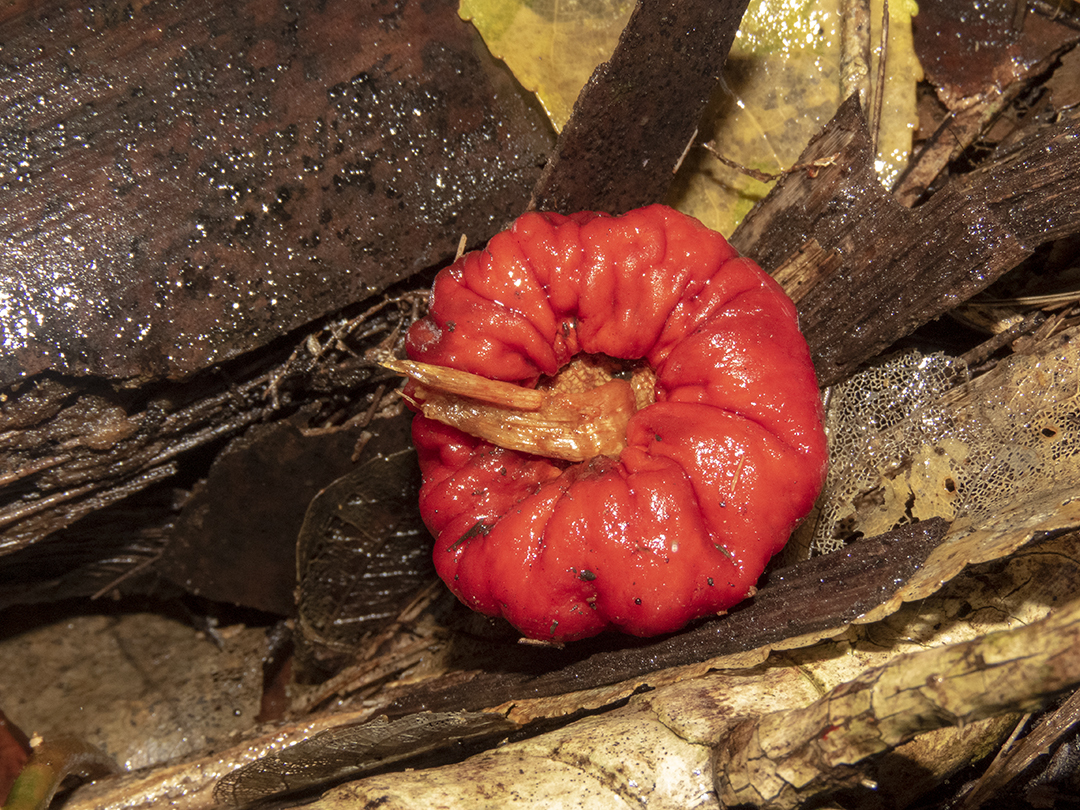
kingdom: Fungi
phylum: Basidiomycota
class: Agaricomycetes
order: Agaricales
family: Strophariaceae
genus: Leratiomyces
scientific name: Leratiomyces erythrocephalus
